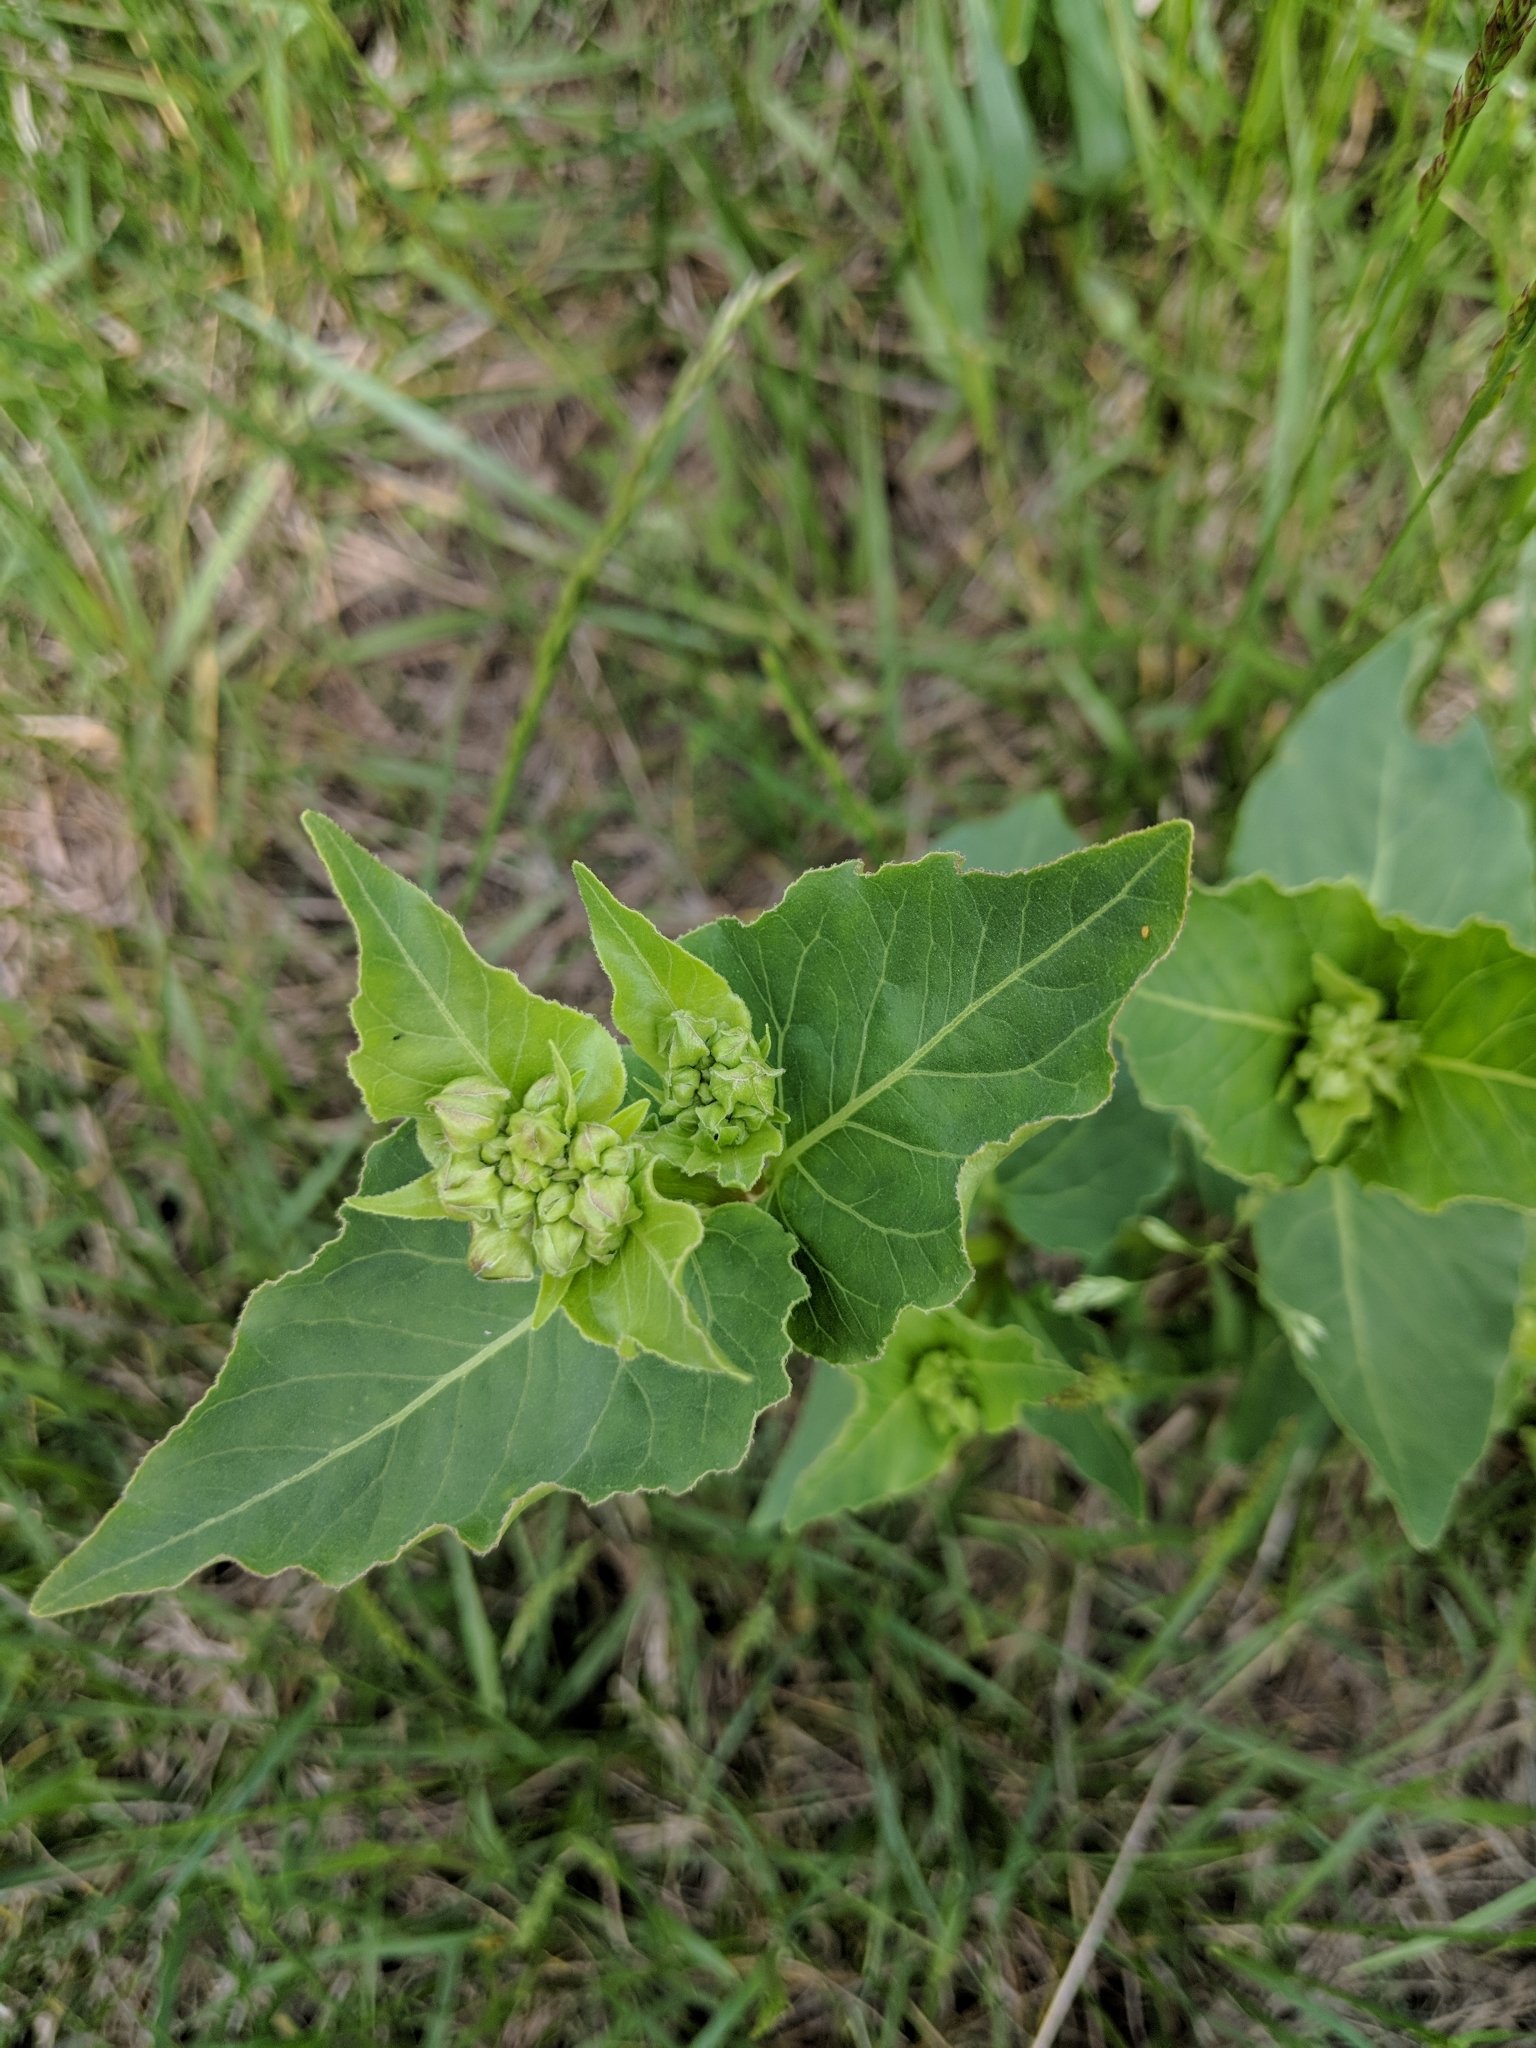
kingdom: Plantae
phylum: Tracheophyta
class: Magnoliopsida
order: Caryophyllales
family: Nyctaginaceae
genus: Mirabilis
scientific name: Mirabilis nyctaginea
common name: Umbrella wort
